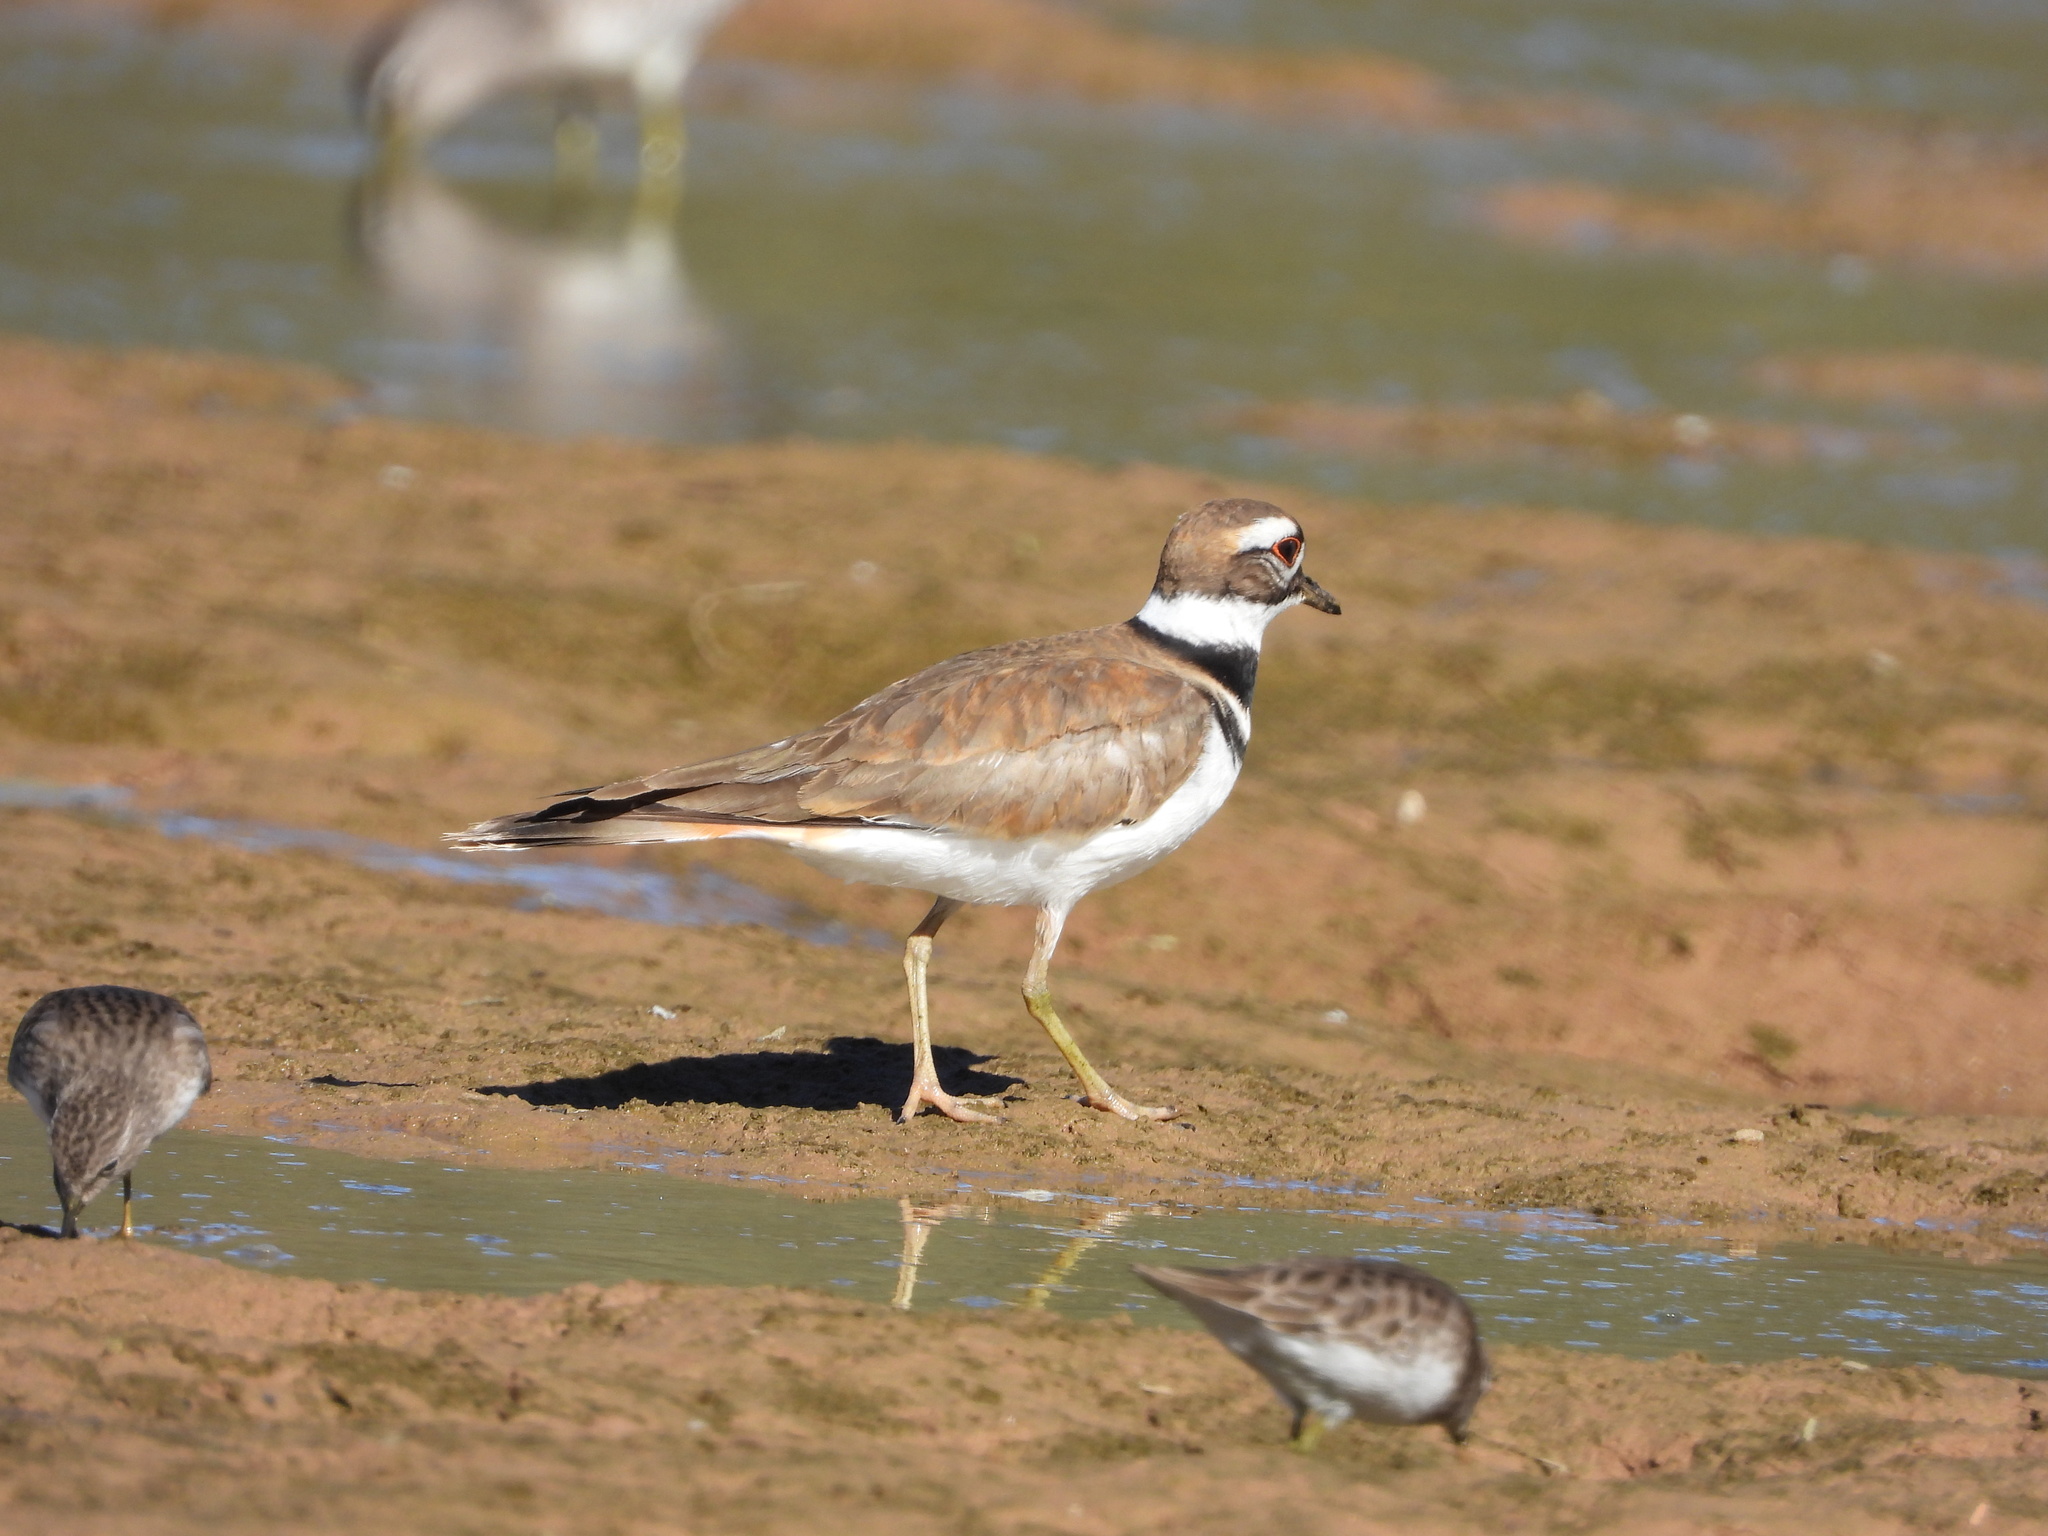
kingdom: Animalia
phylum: Chordata
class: Aves
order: Charadriiformes
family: Charadriidae
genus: Charadrius
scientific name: Charadrius vociferus
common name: Killdeer
